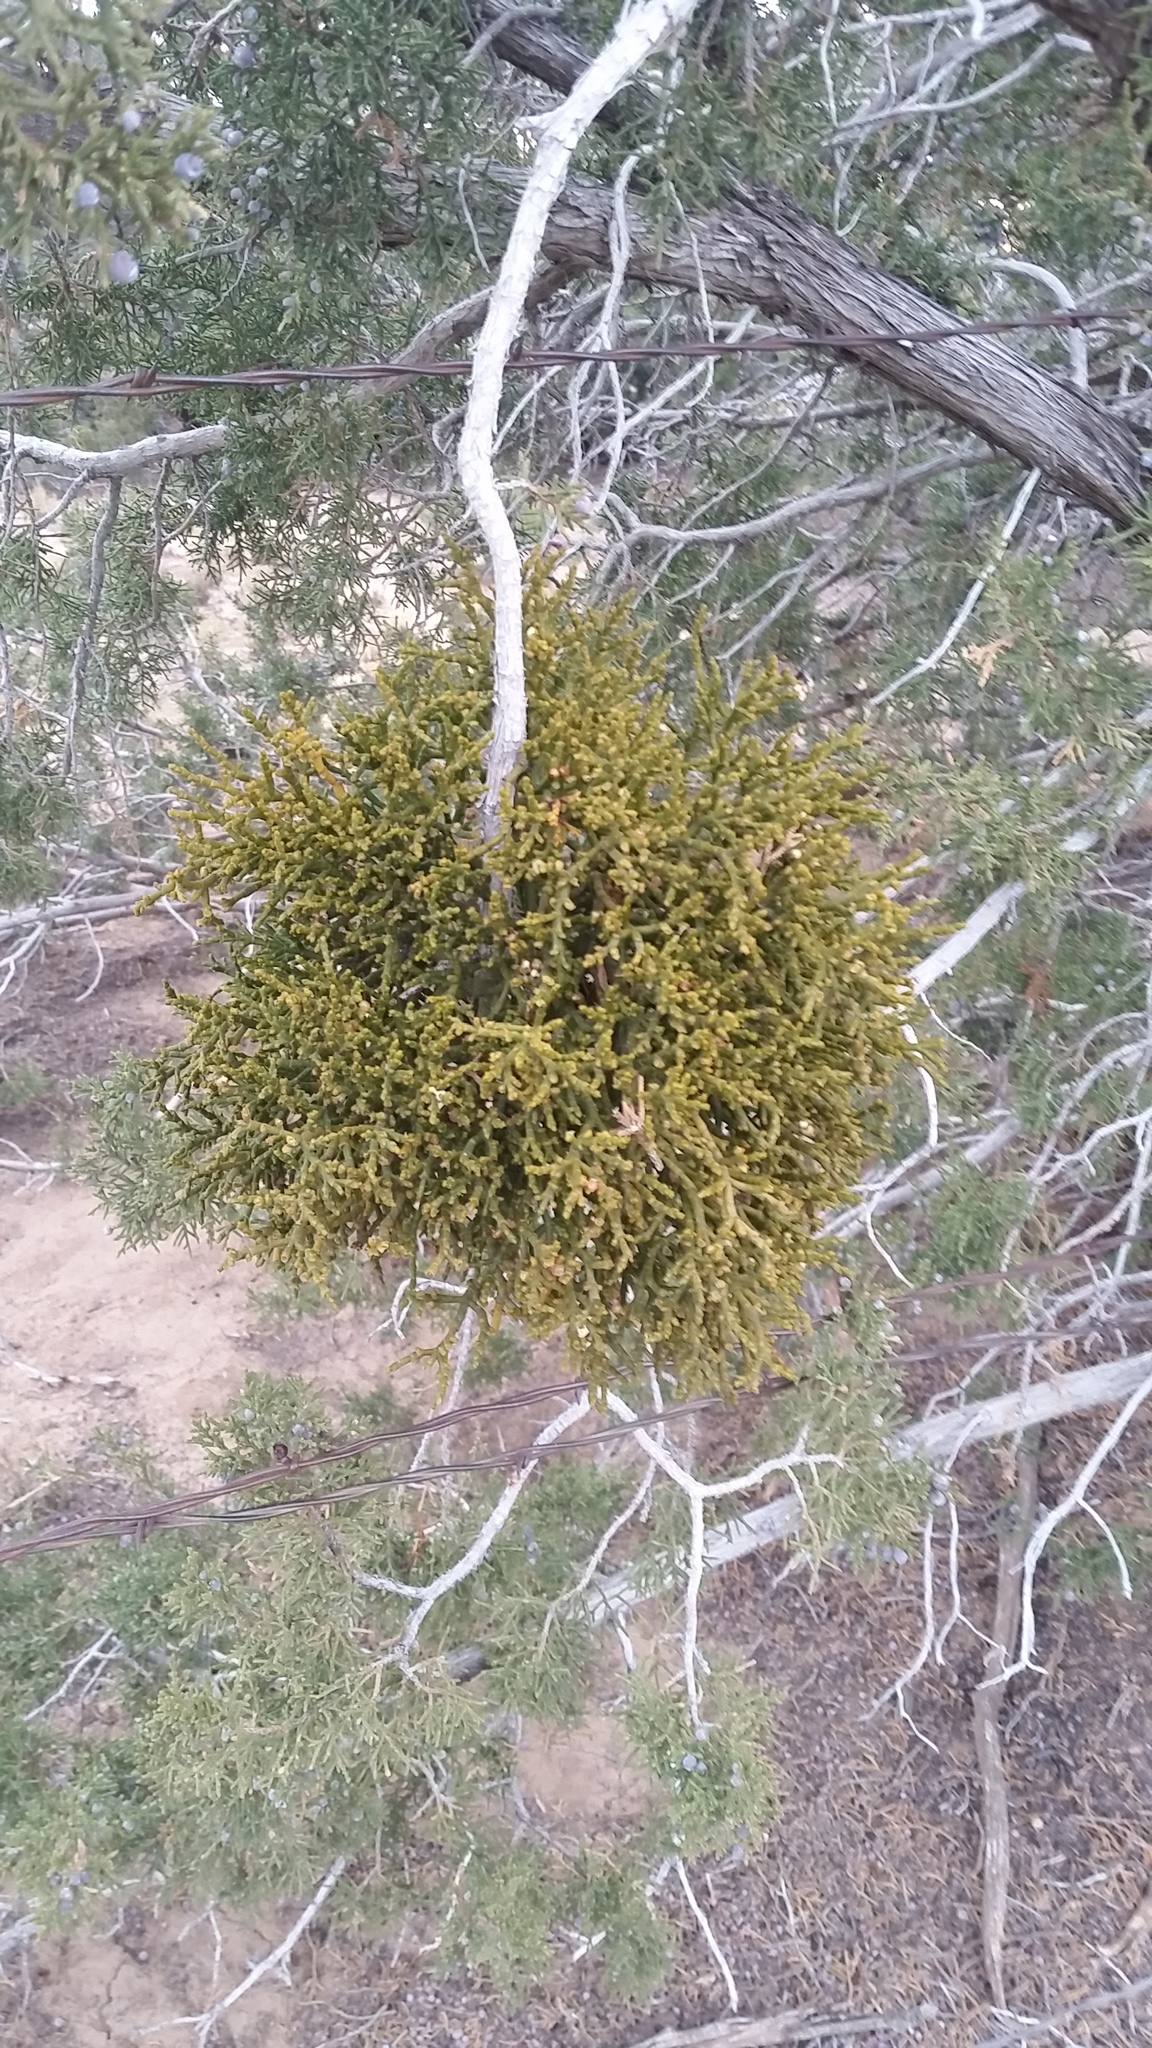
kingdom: Plantae
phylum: Tracheophyta
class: Magnoliopsida
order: Santalales
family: Viscaceae
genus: Phoradendron
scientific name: Phoradendron juniperinum
